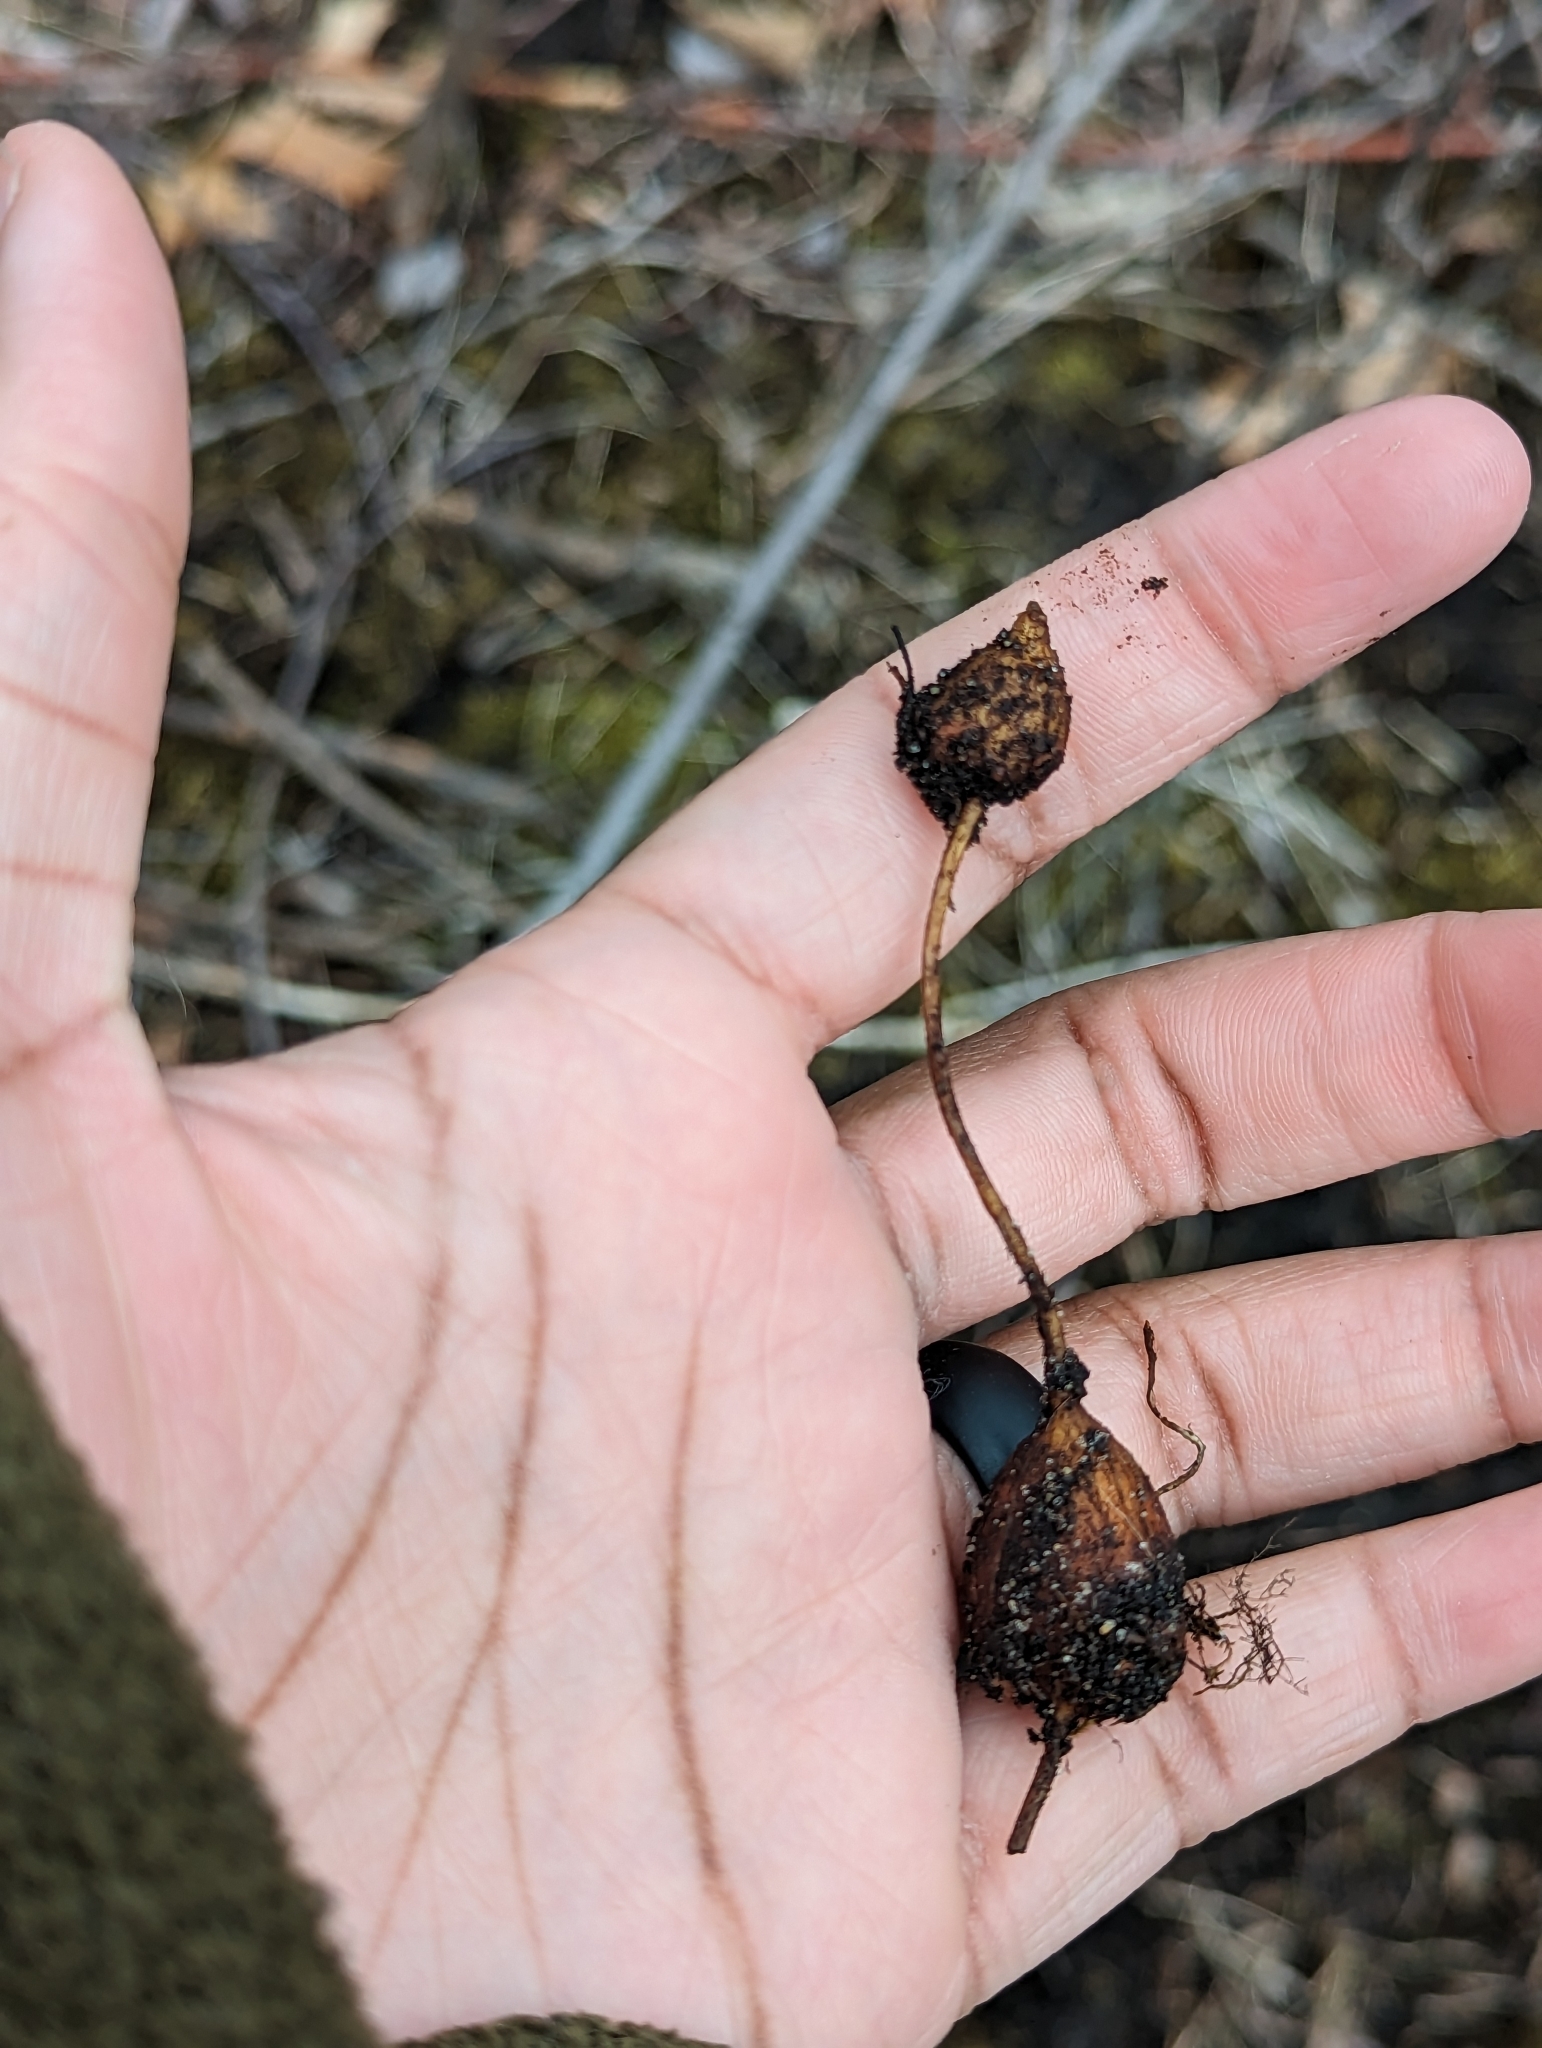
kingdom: Plantae
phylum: Tracheophyta
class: Magnoliopsida
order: Fabales
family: Fabaceae
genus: Apios
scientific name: Apios americana
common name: American potato-bean
